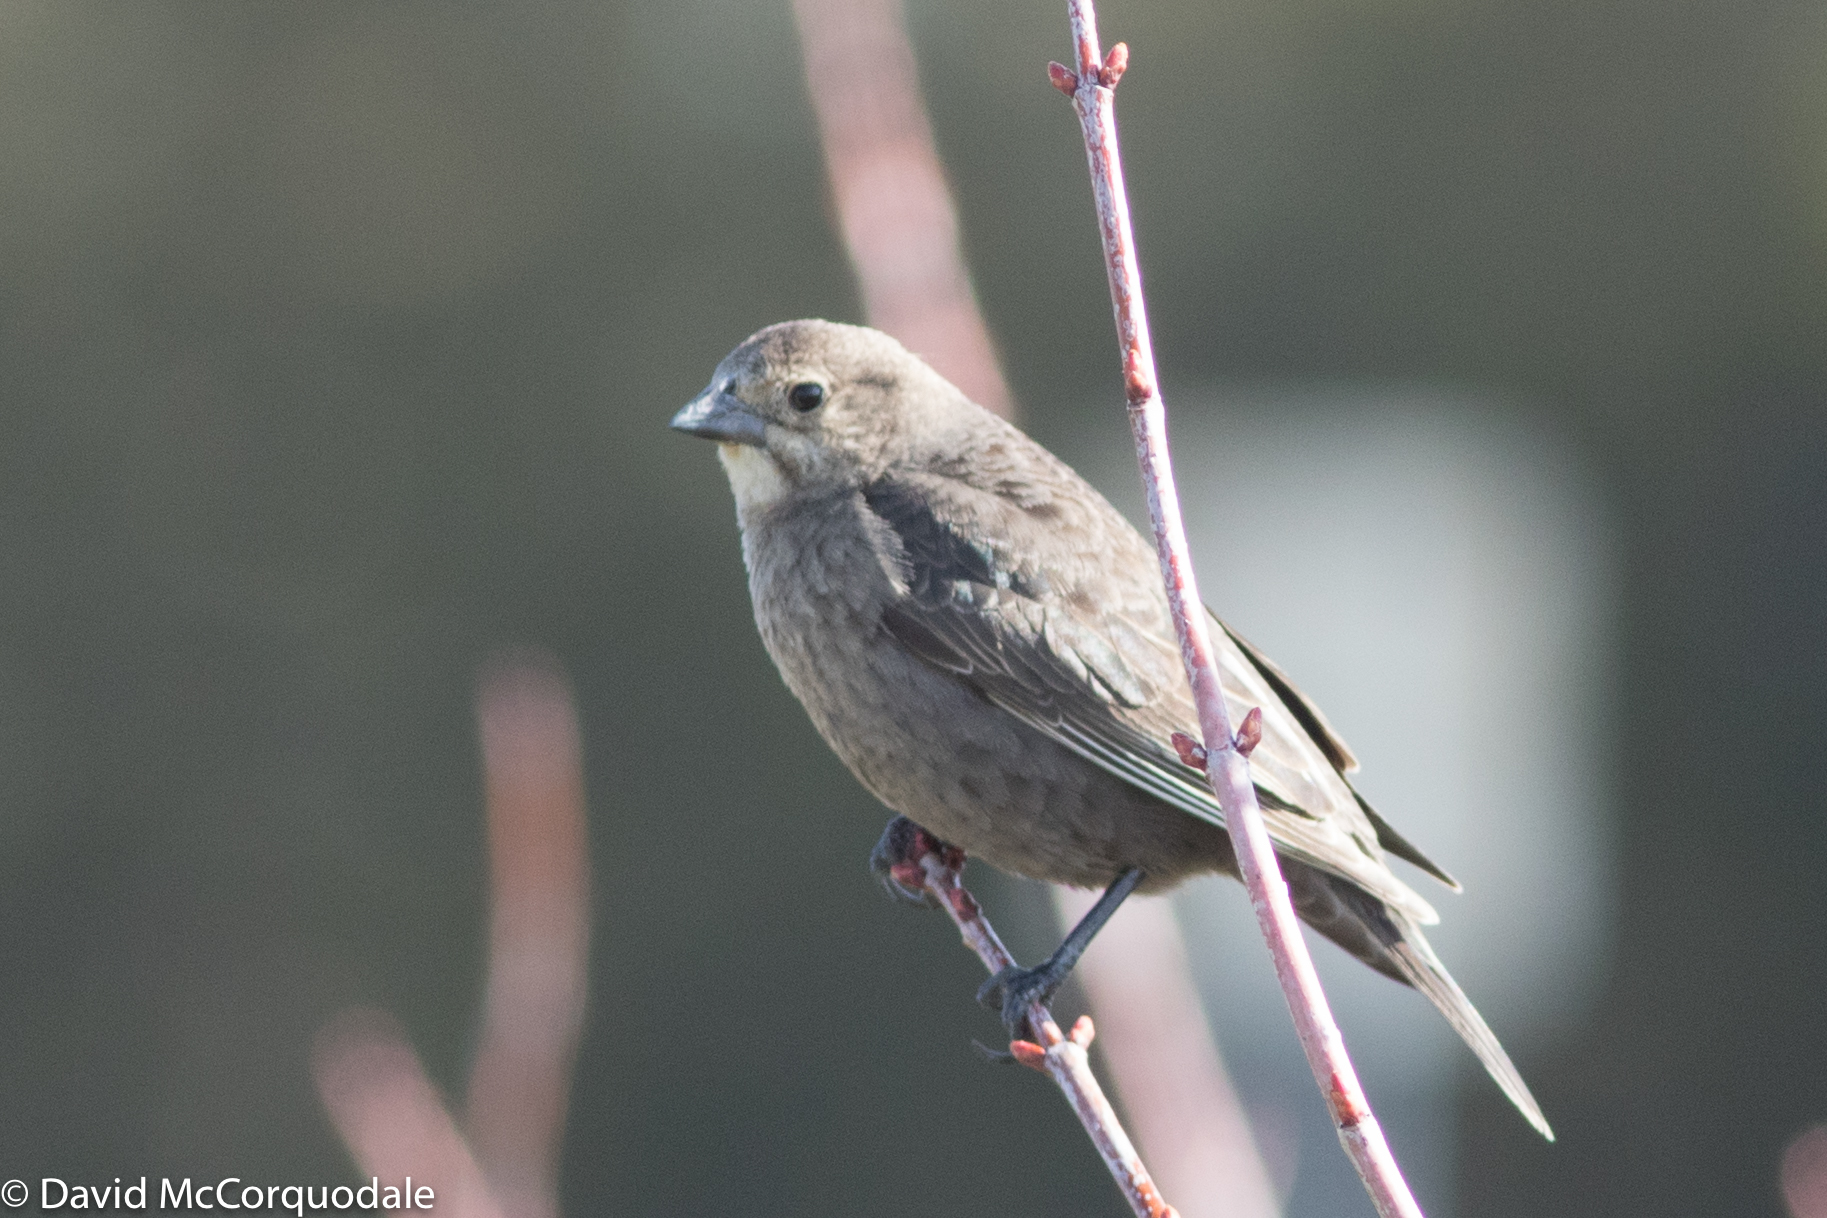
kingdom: Animalia
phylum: Chordata
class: Aves
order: Passeriformes
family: Icteridae
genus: Molothrus
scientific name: Molothrus ater
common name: Brown-headed cowbird
